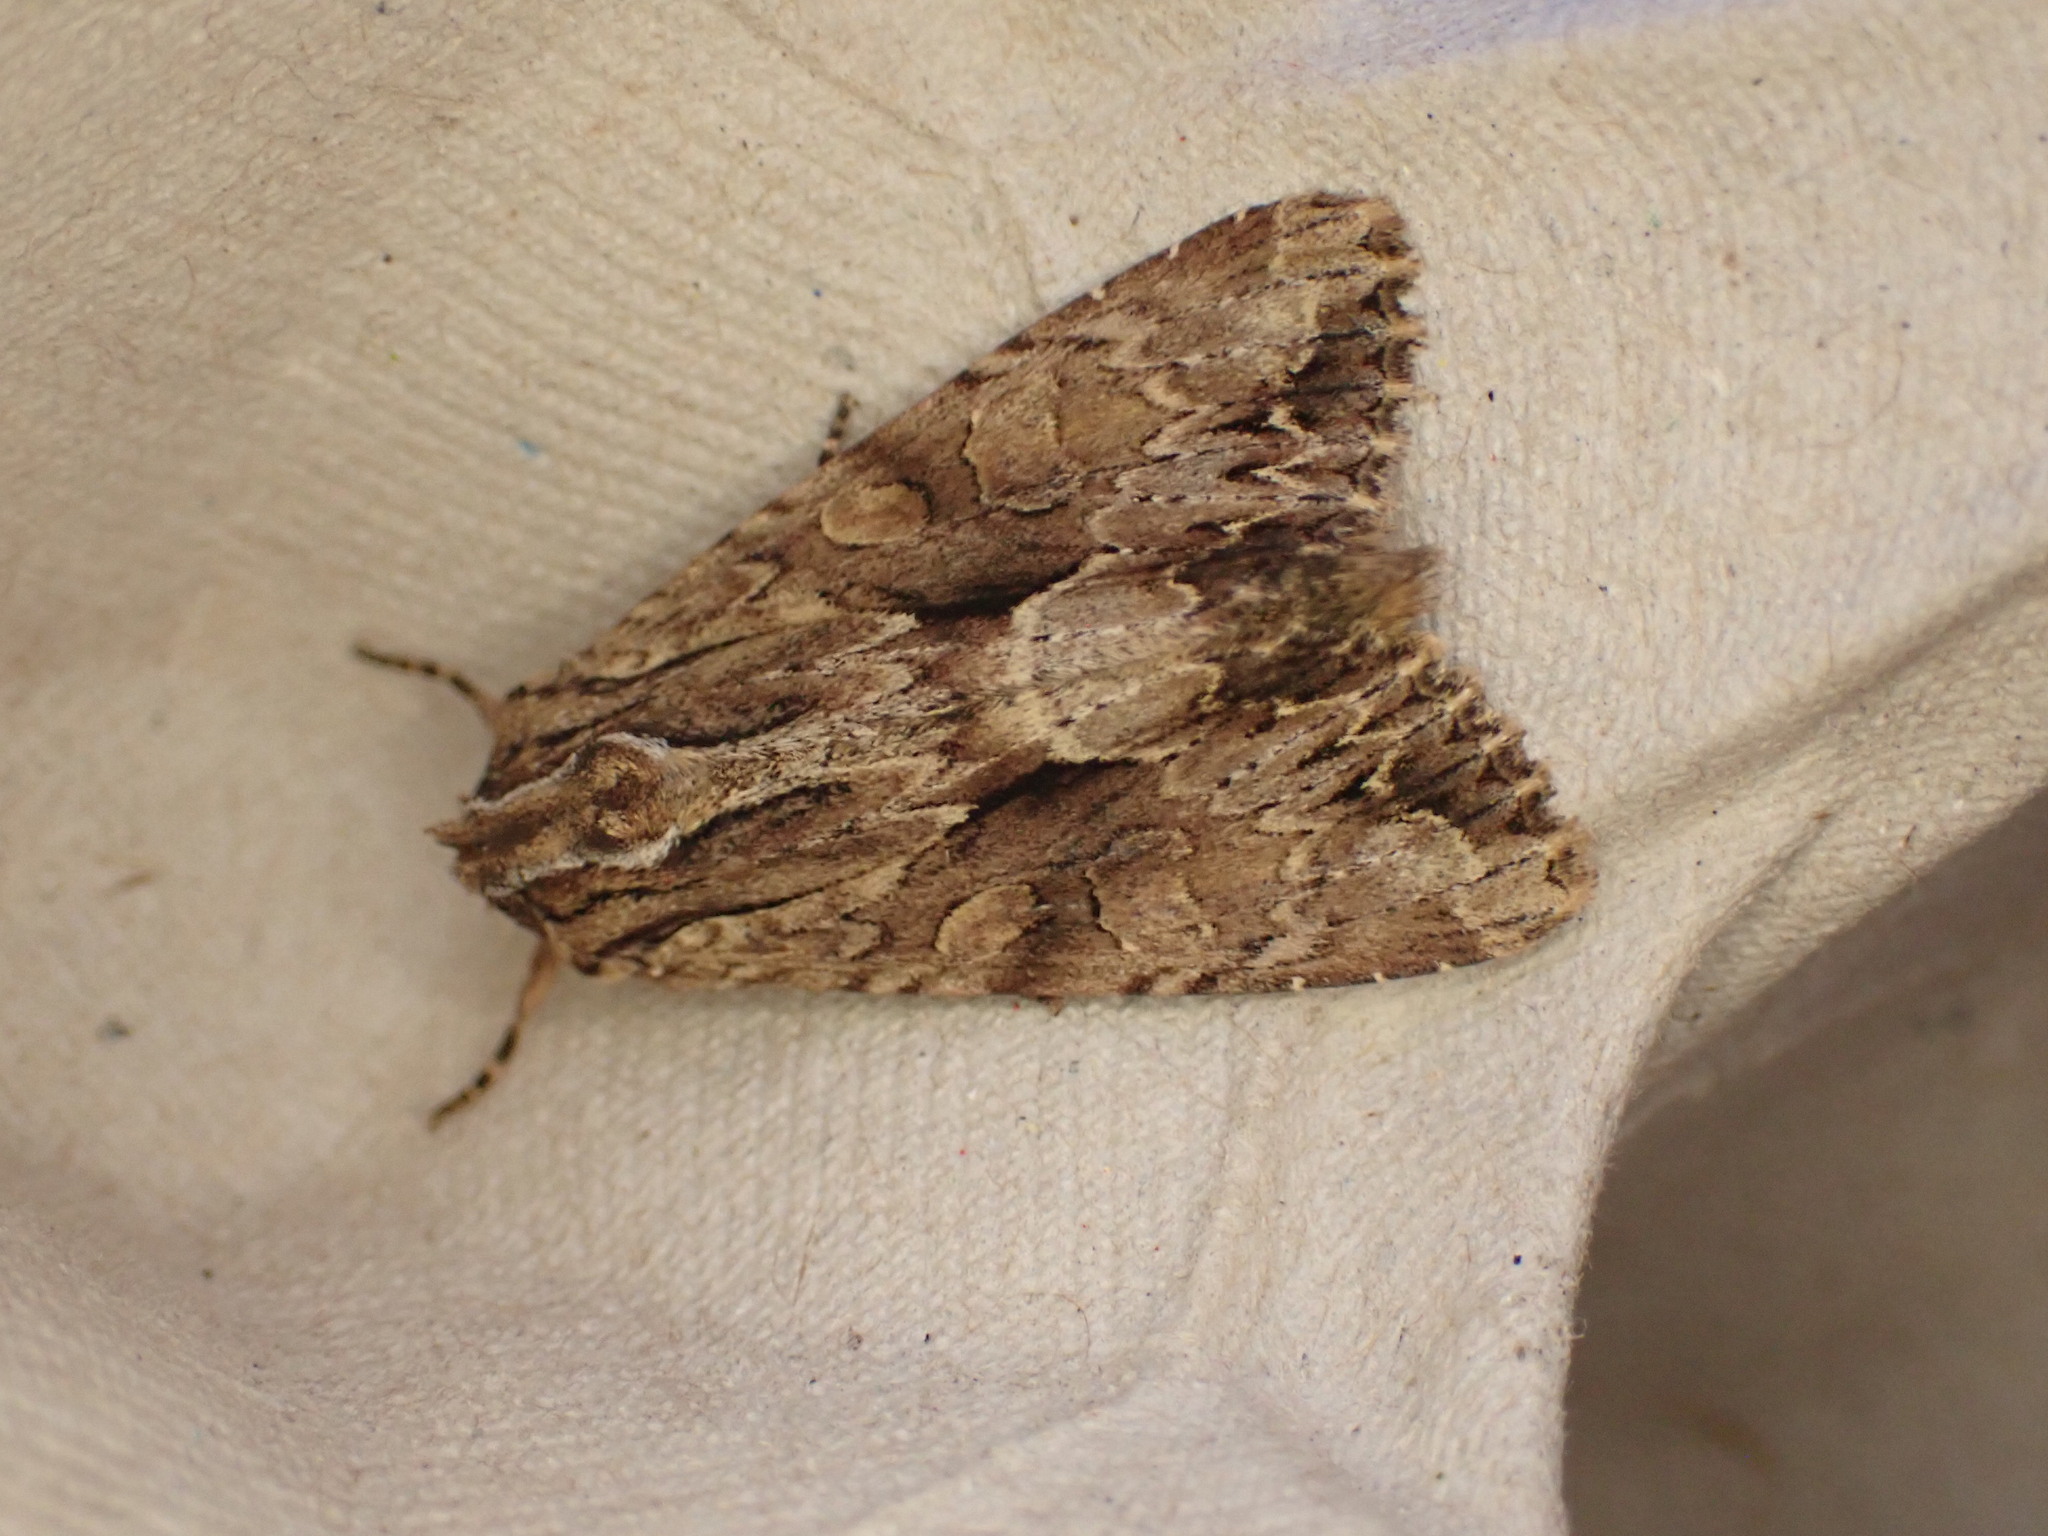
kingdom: Animalia
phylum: Arthropoda
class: Insecta
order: Lepidoptera
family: Noctuidae
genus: Apamea
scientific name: Apamea monoglypha
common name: Dark arches
